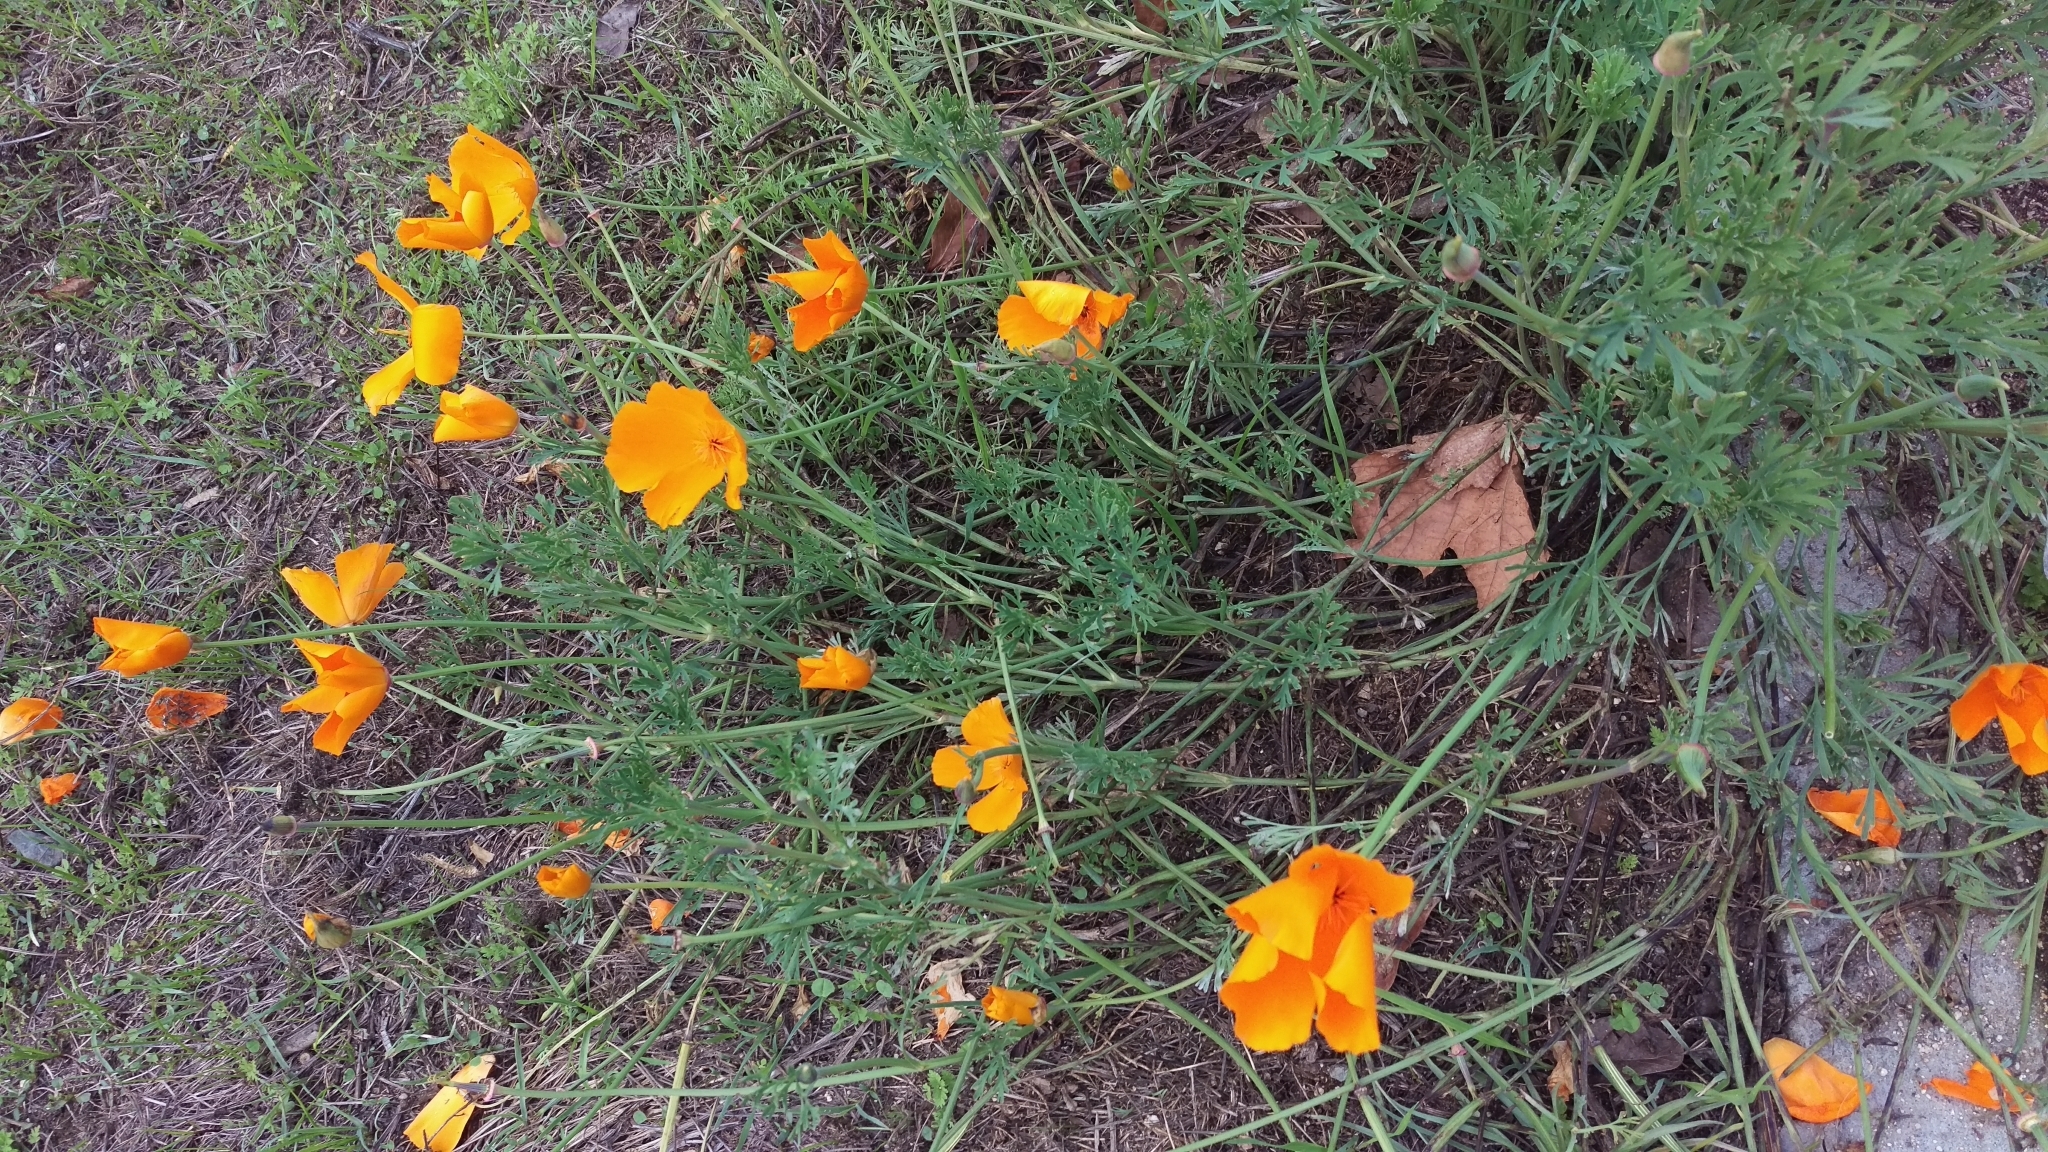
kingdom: Plantae
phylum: Tracheophyta
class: Magnoliopsida
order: Ranunculales
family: Papaveraceae
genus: Eschscholzia
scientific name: Eschscholzia californica
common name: California poppy
